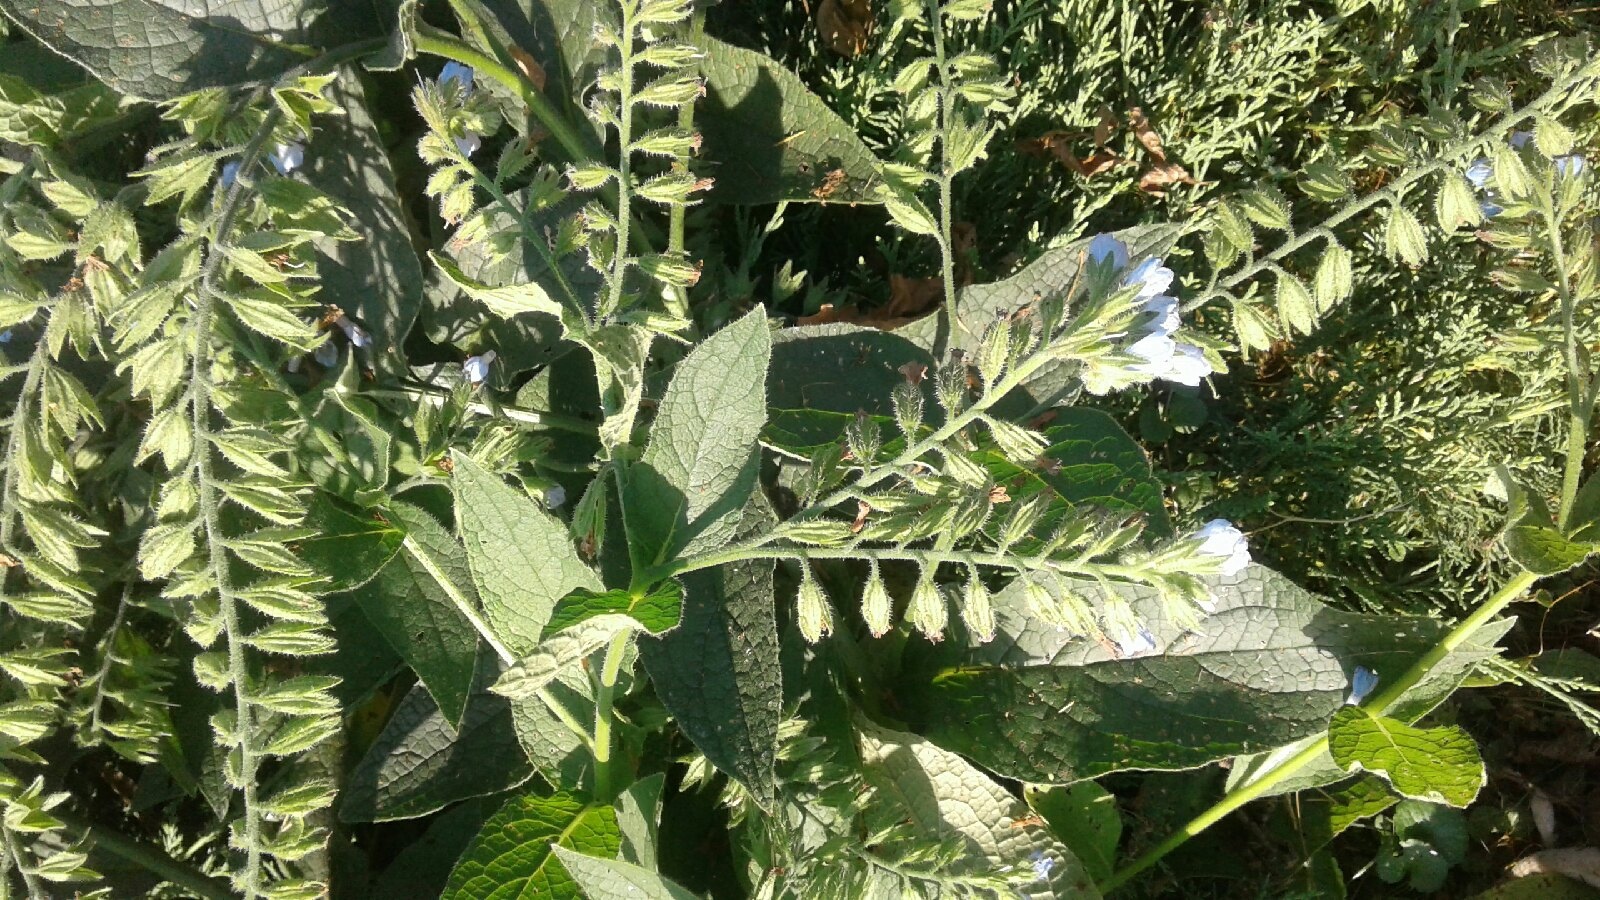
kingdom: Plantae
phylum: Tracheophyta
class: Magnoliopsida
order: Boraginales
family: Boraginaceae
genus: Symphytum
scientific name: Symphytum caucasicum
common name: Caucasian comfrey
